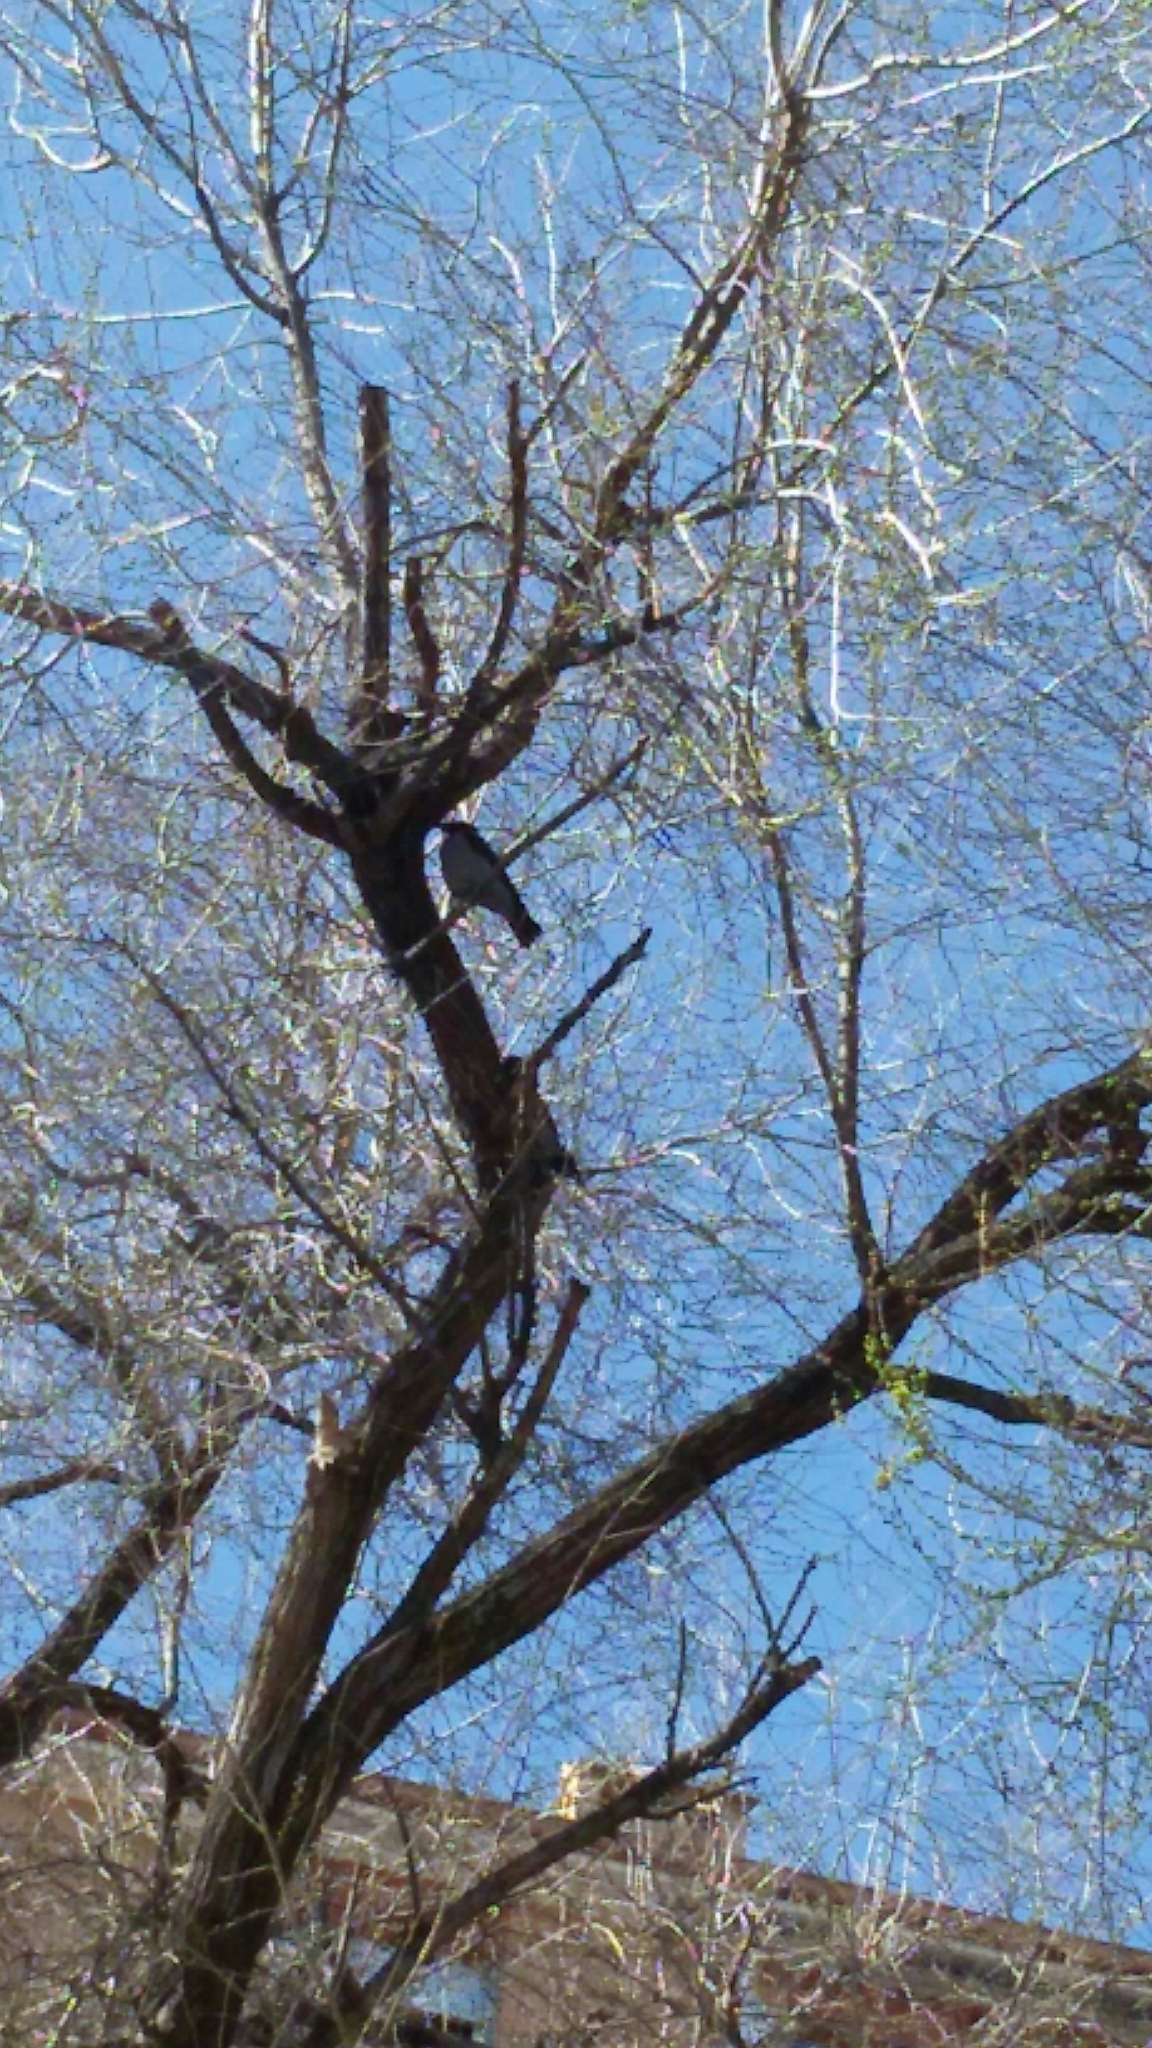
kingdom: Animalia
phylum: Chordata
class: Aves
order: Passeriformes
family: Corvidae
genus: Corvus
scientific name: Corvus cornix
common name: Hooded crow
